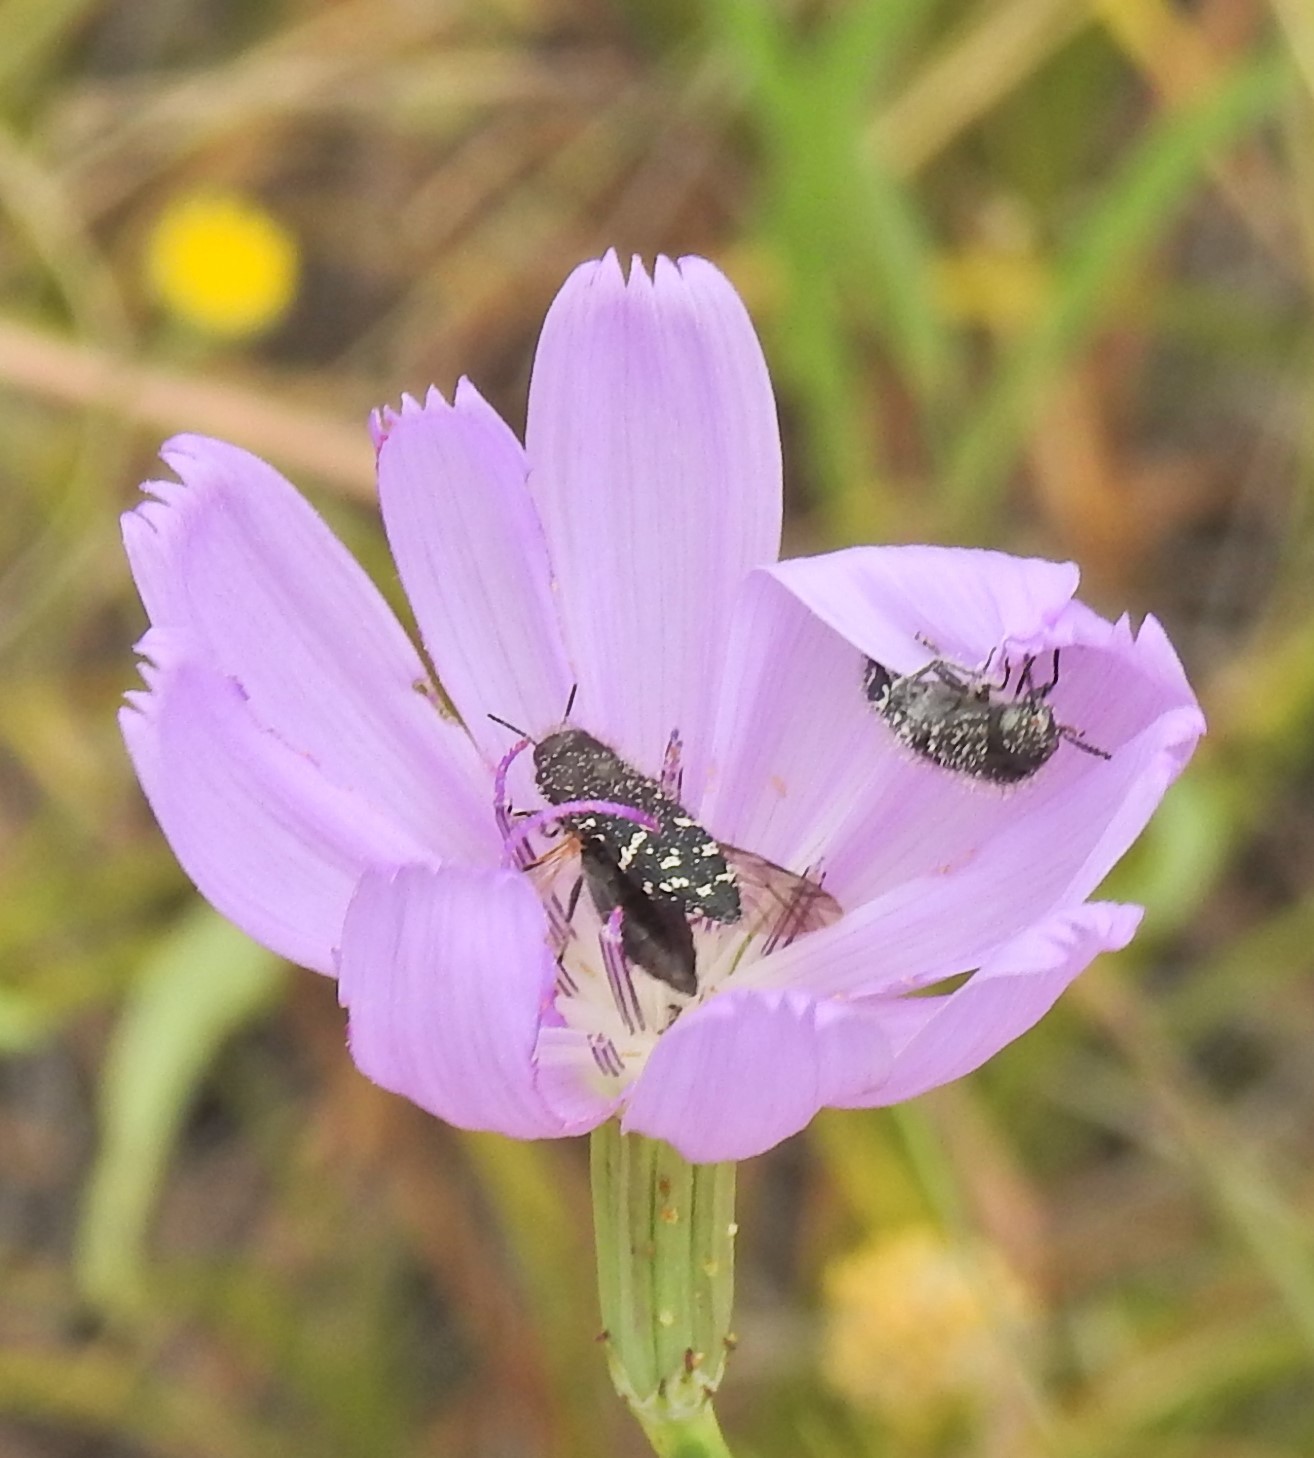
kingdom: Animalia
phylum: Arthropoda
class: Insecta
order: Coleoptera
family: Buprestidae
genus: Acmaeodera
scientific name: Acmaeodera ornatoides
